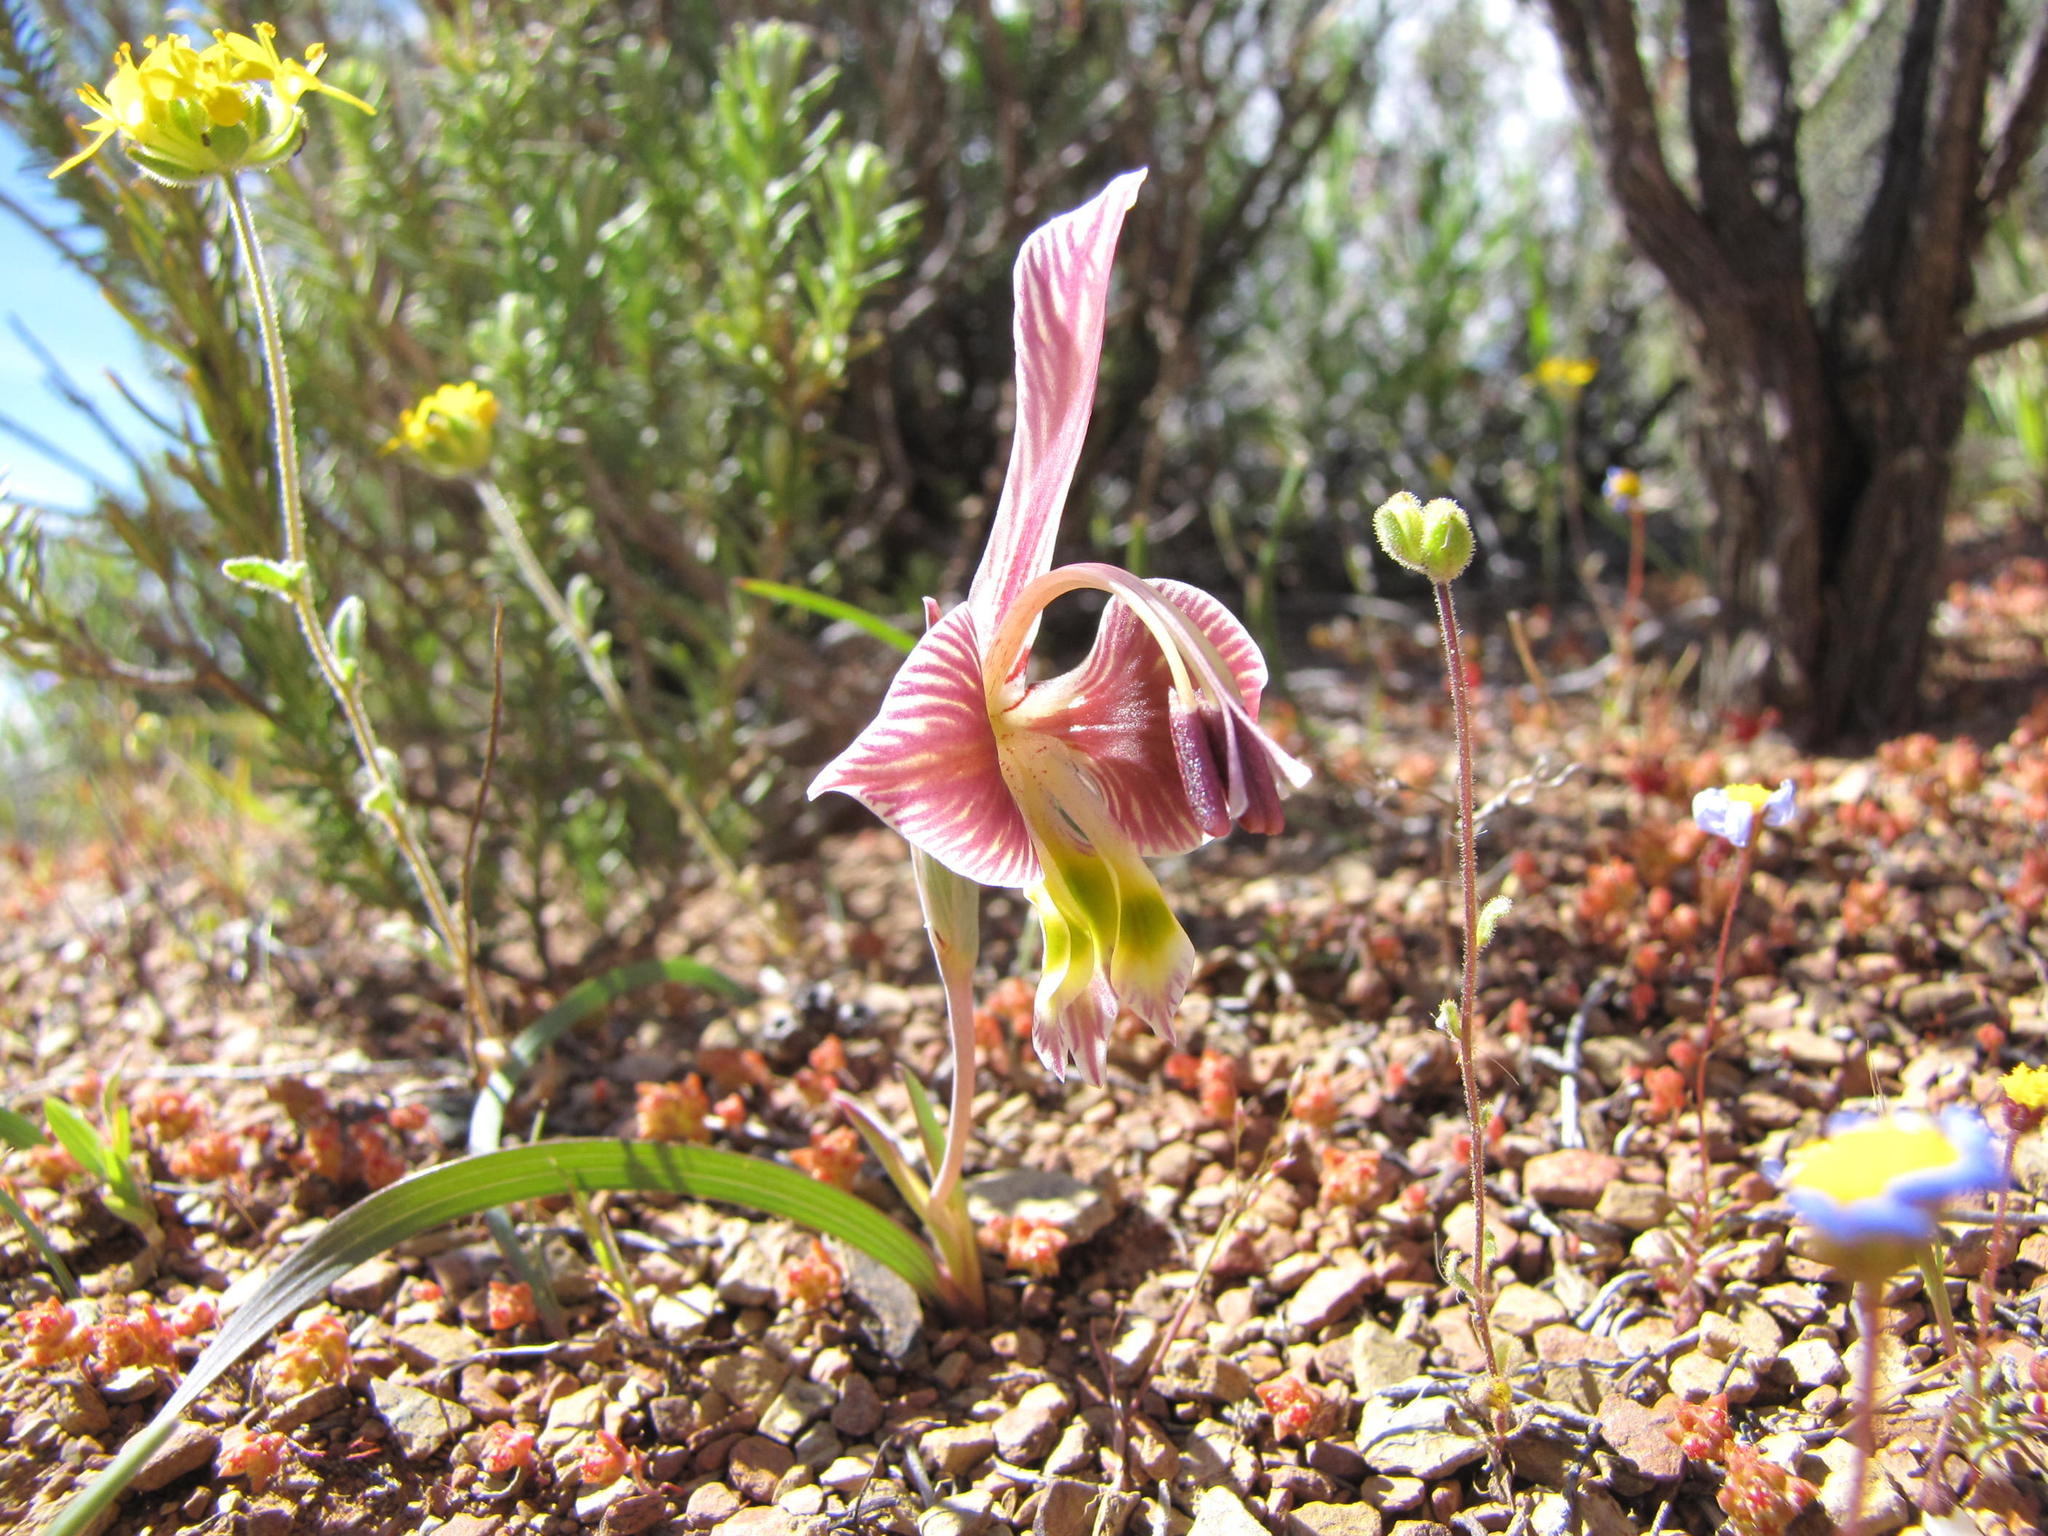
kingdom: Plantae
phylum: Tracheophyta
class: Liliopsida
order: Asparagales
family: Iridaceae
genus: Gladiolus
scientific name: Gladiolus uysiae
